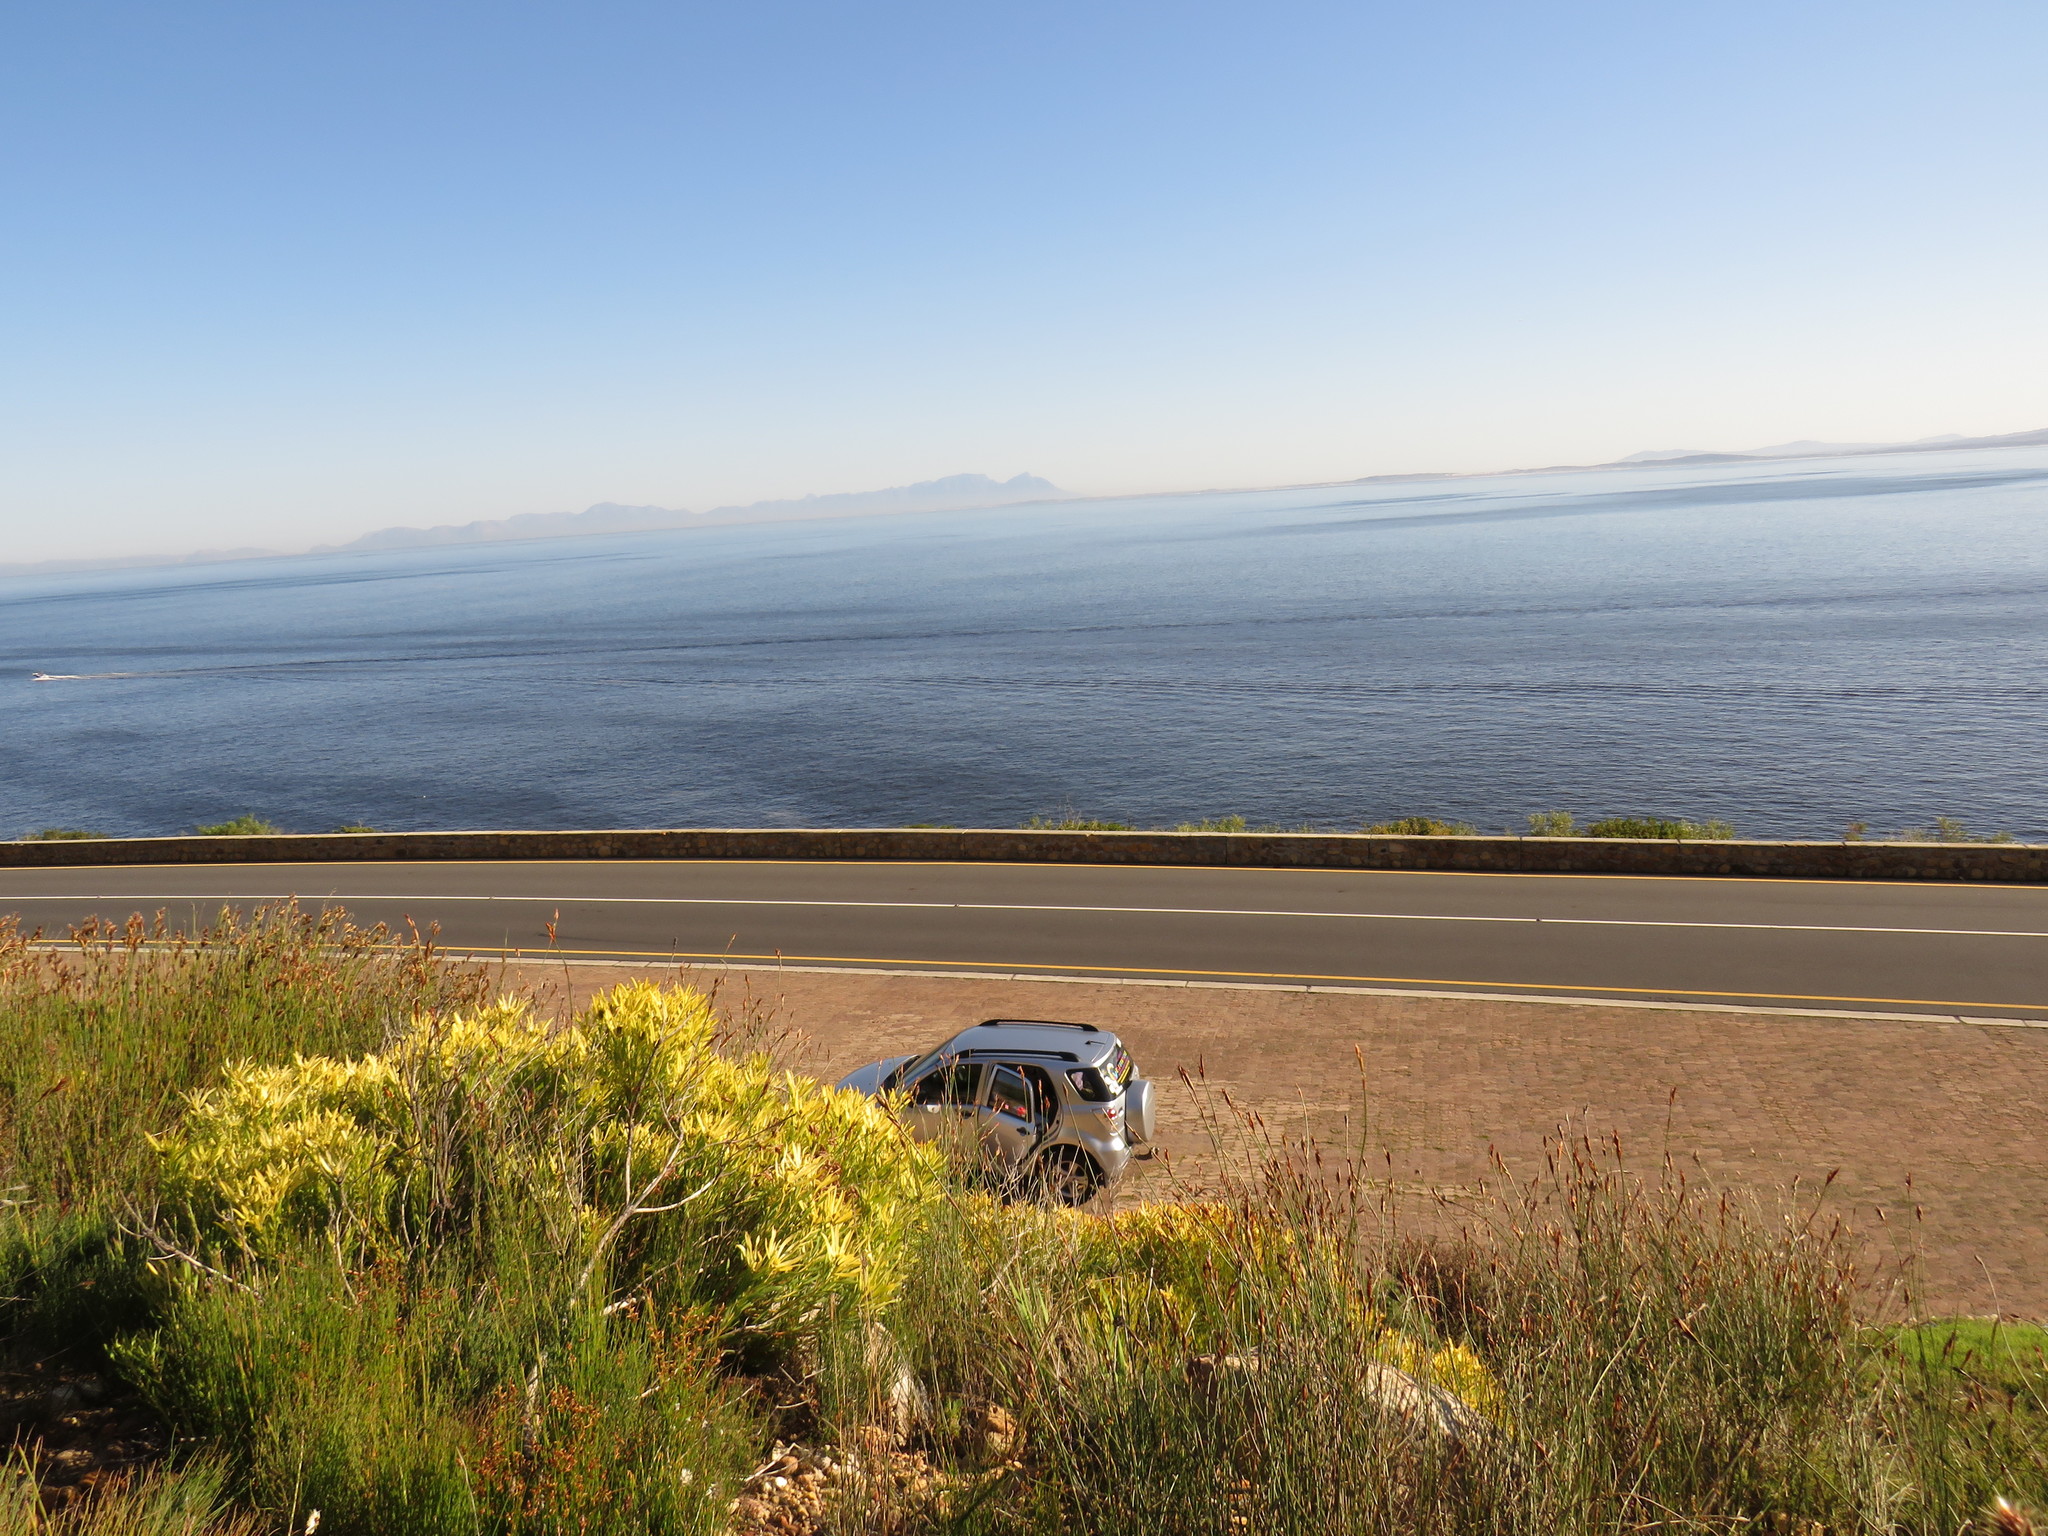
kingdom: Plantae
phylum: Tracheophyta
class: Magnoliopsida
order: Proteales
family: Proteaceae
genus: Leucadendron
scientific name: Leucadendron salignum
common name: Common sunshine conebush
